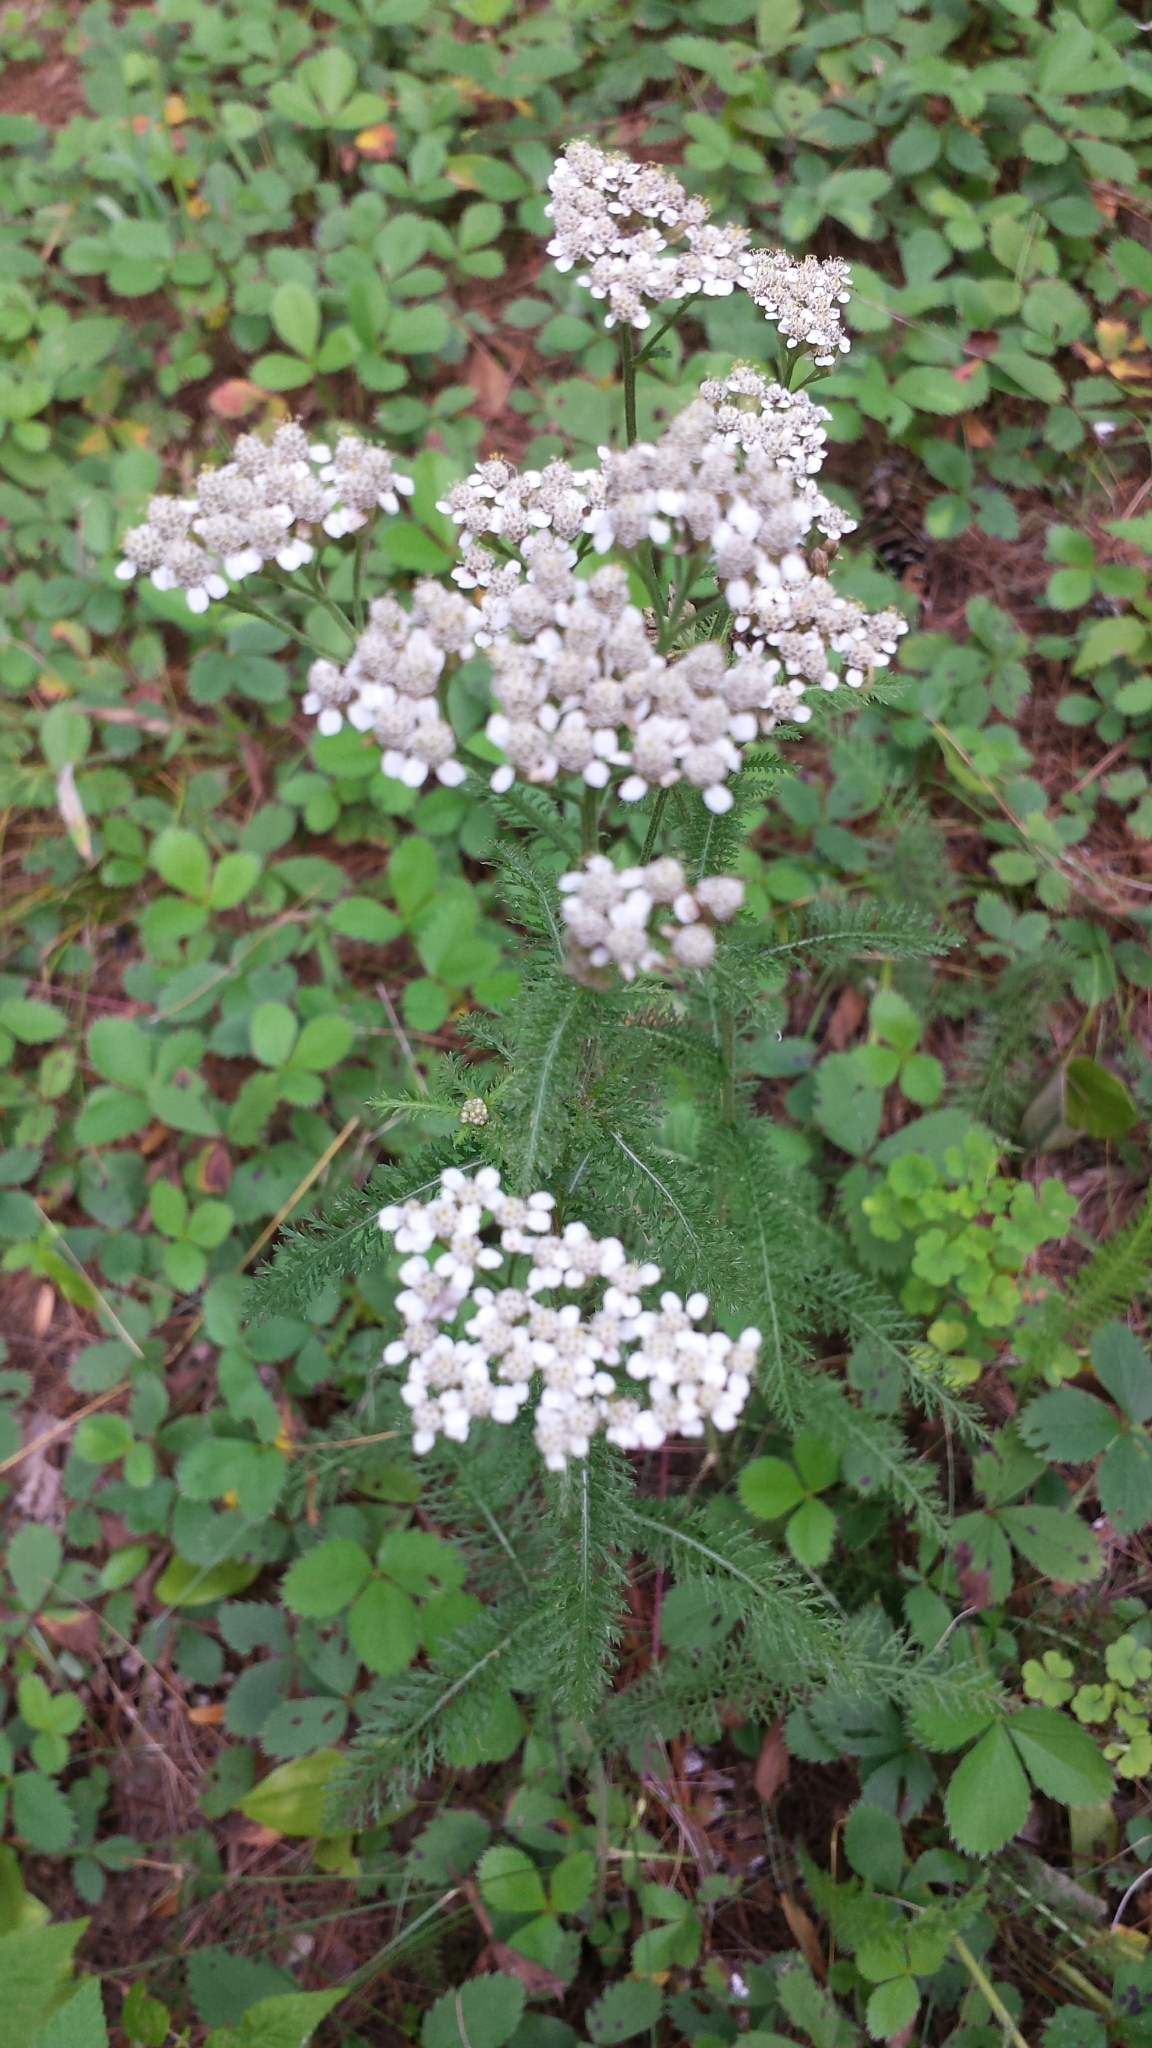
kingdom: Plantae
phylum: Tracheophyta
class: Magnoliopsida
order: Asterales
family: Asteraceae
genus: Achillea
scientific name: Achillea millefolium
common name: Yarrow
